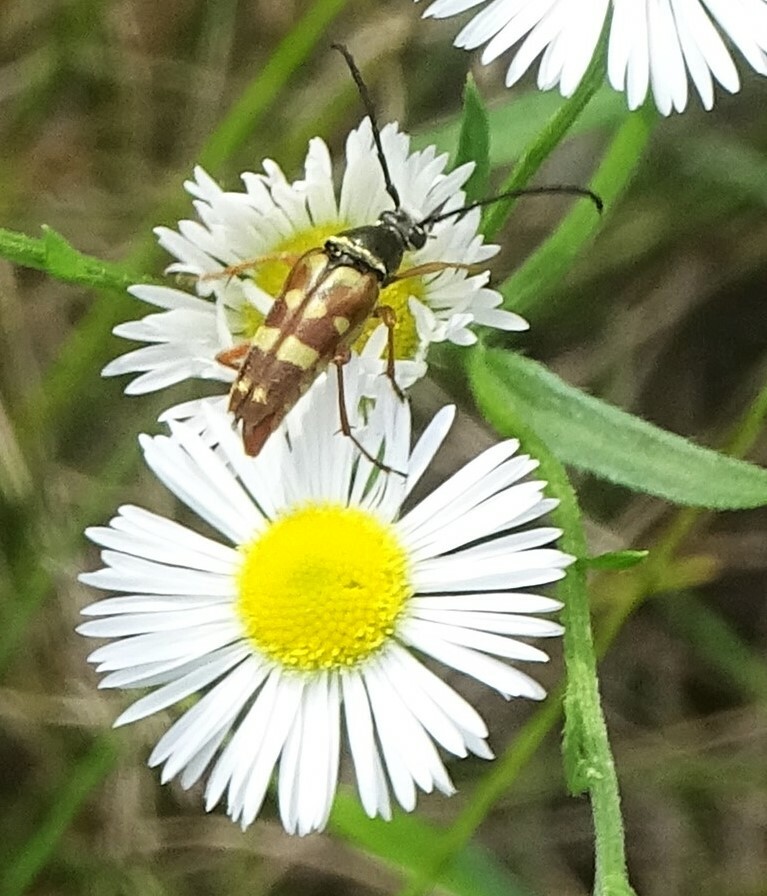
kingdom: Animalia
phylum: Arthropoda
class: Insecta
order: Coleoptera
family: Cerambycidae
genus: Typocerus
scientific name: Typocerus velutinus
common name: Banded longhorn beetle
